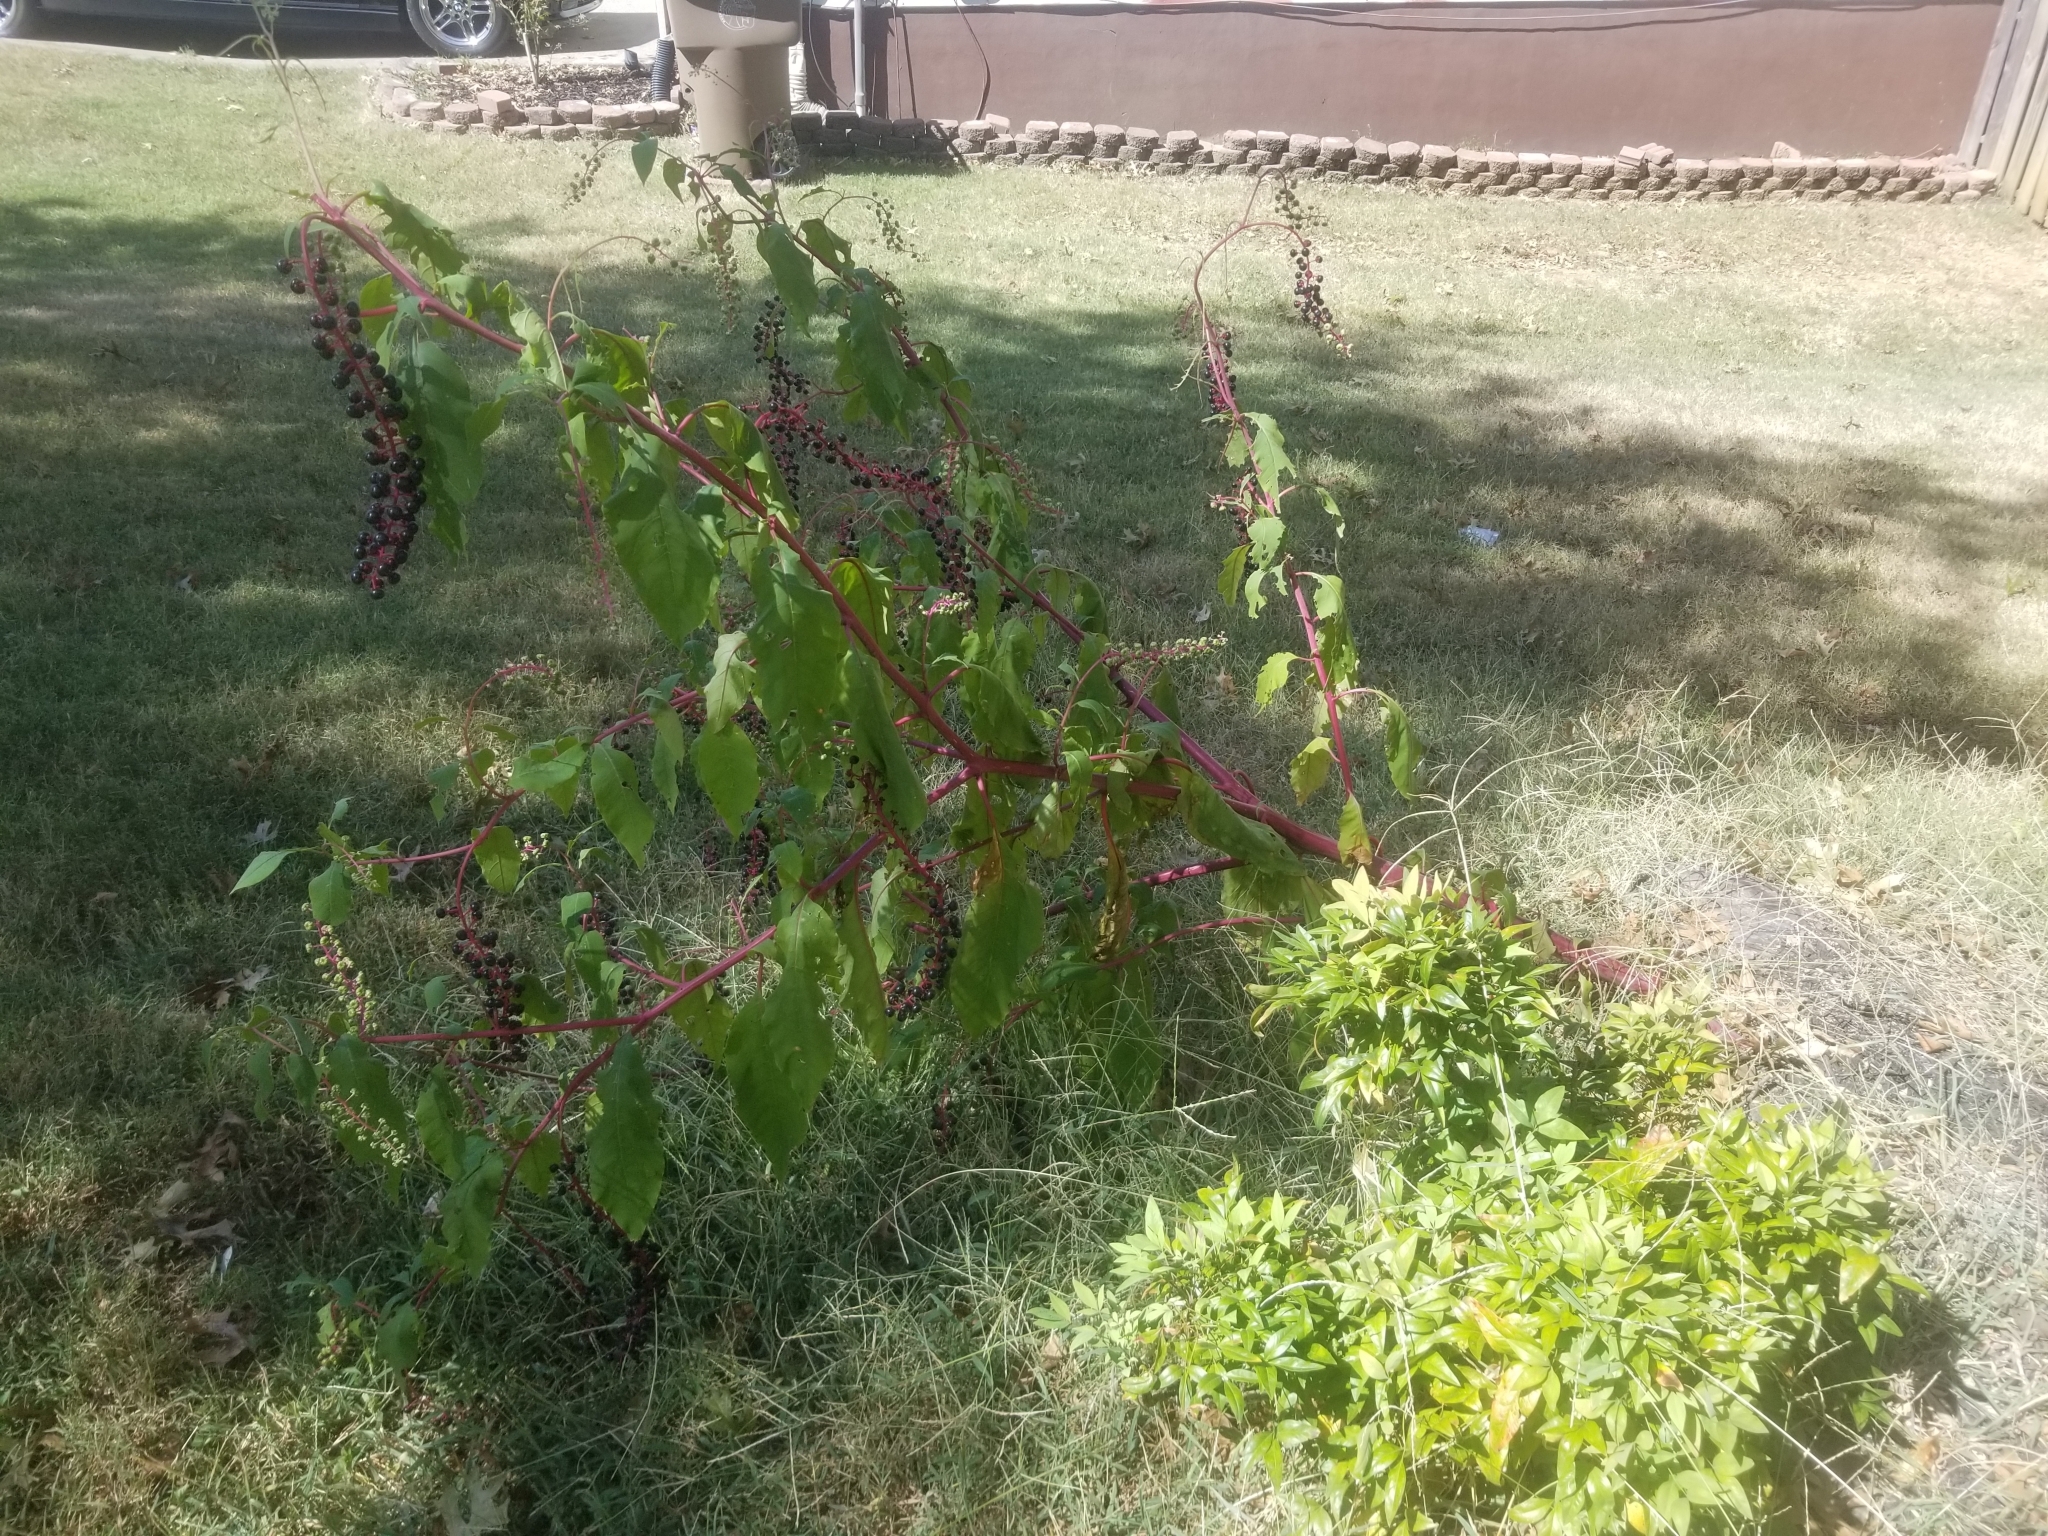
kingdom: Plantae
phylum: Tracheophyta
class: Magnoliopsida
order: Caryophyllales
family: Phytolaccaceae
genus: Phytolacca
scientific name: Phytolacca americana
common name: American pokeweed
